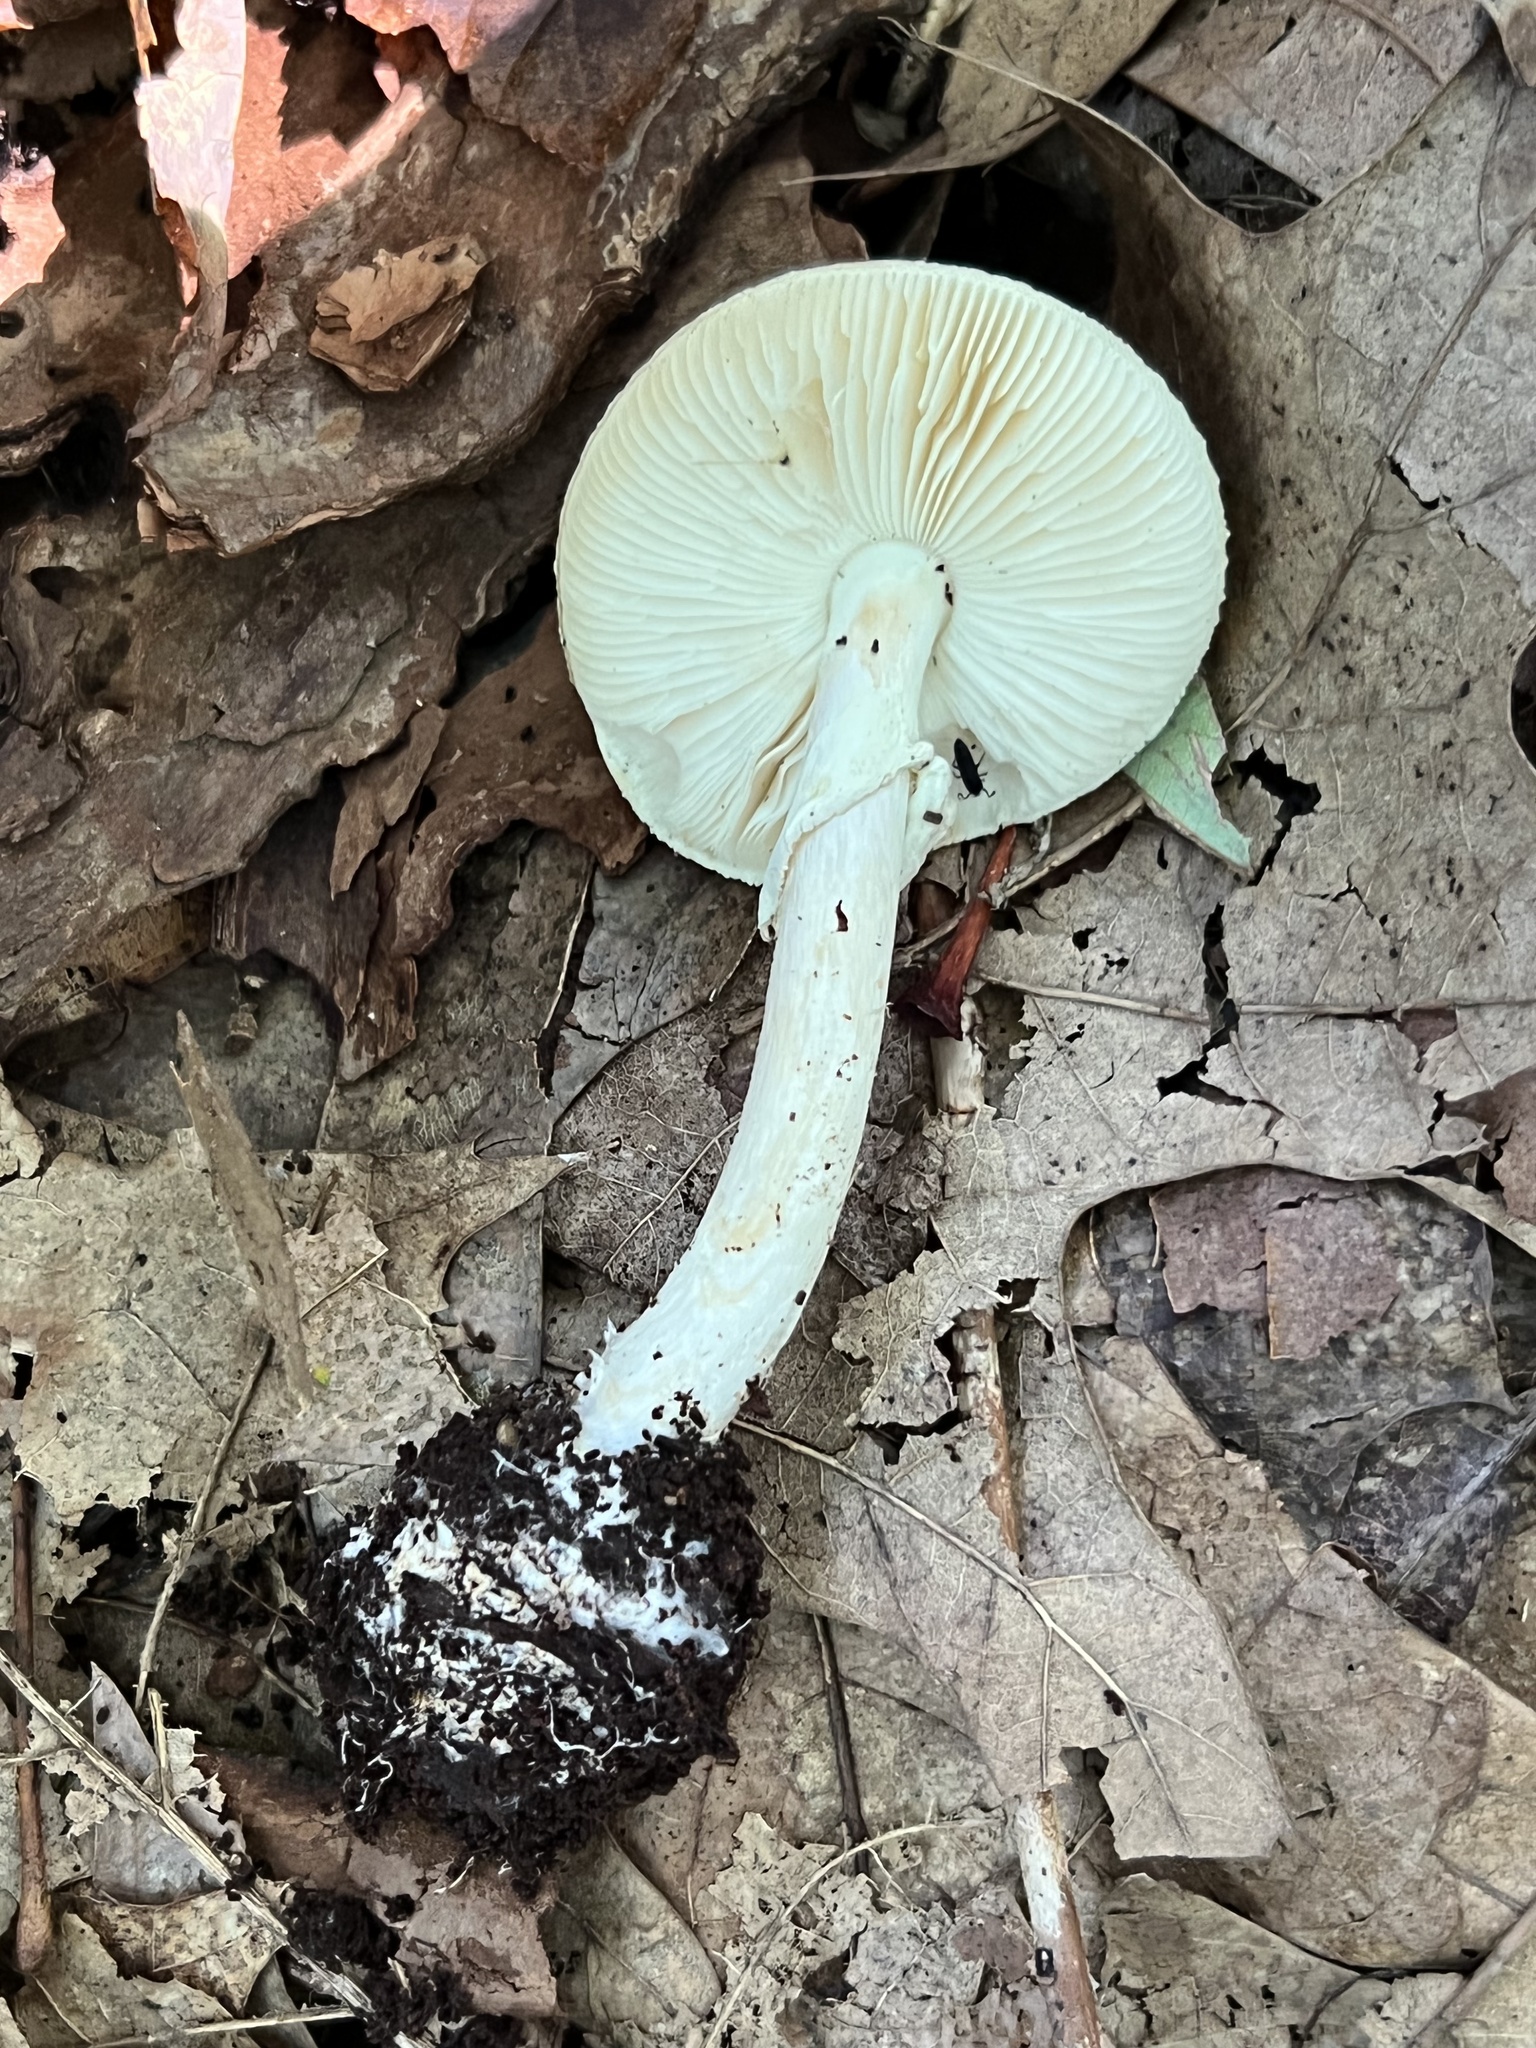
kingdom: Fungi
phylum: Basidiomycota
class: Agaricomycetes
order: Agaricales
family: Amanitaceae
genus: Amanita
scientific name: Amanita lavendula
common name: Coker's lavender staining amanita
